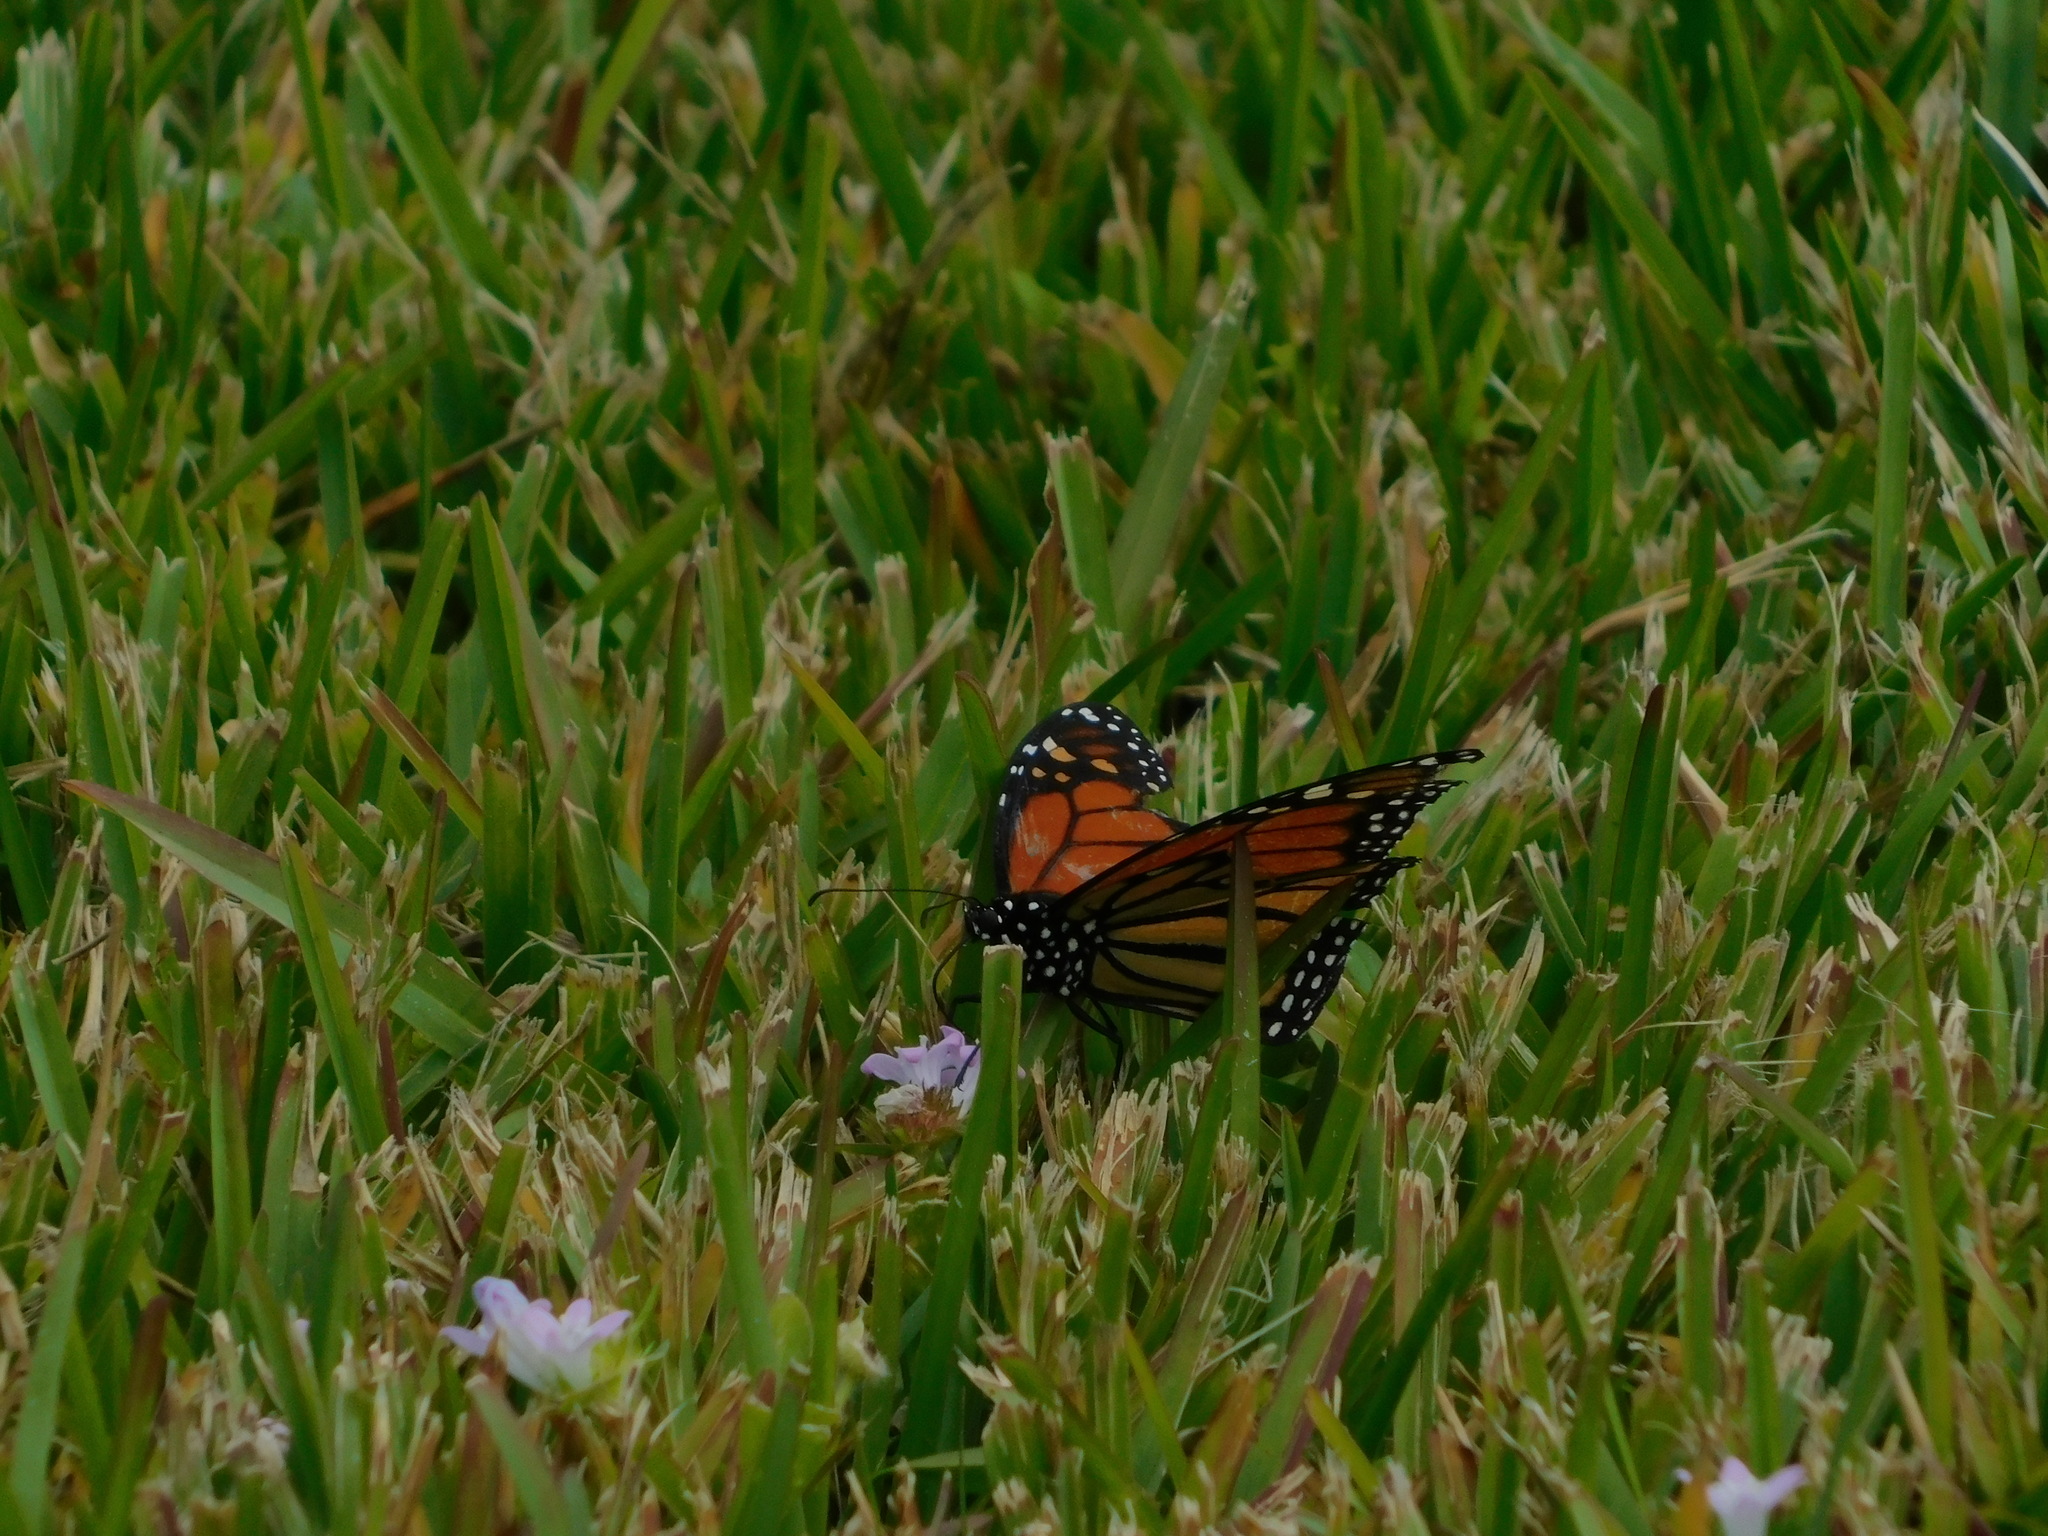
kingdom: Animalia
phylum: Arthropoda
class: Insecta
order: Lepidoptera
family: Nymphalidae
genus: Danaus
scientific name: Danaus plexippus
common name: Monarch
